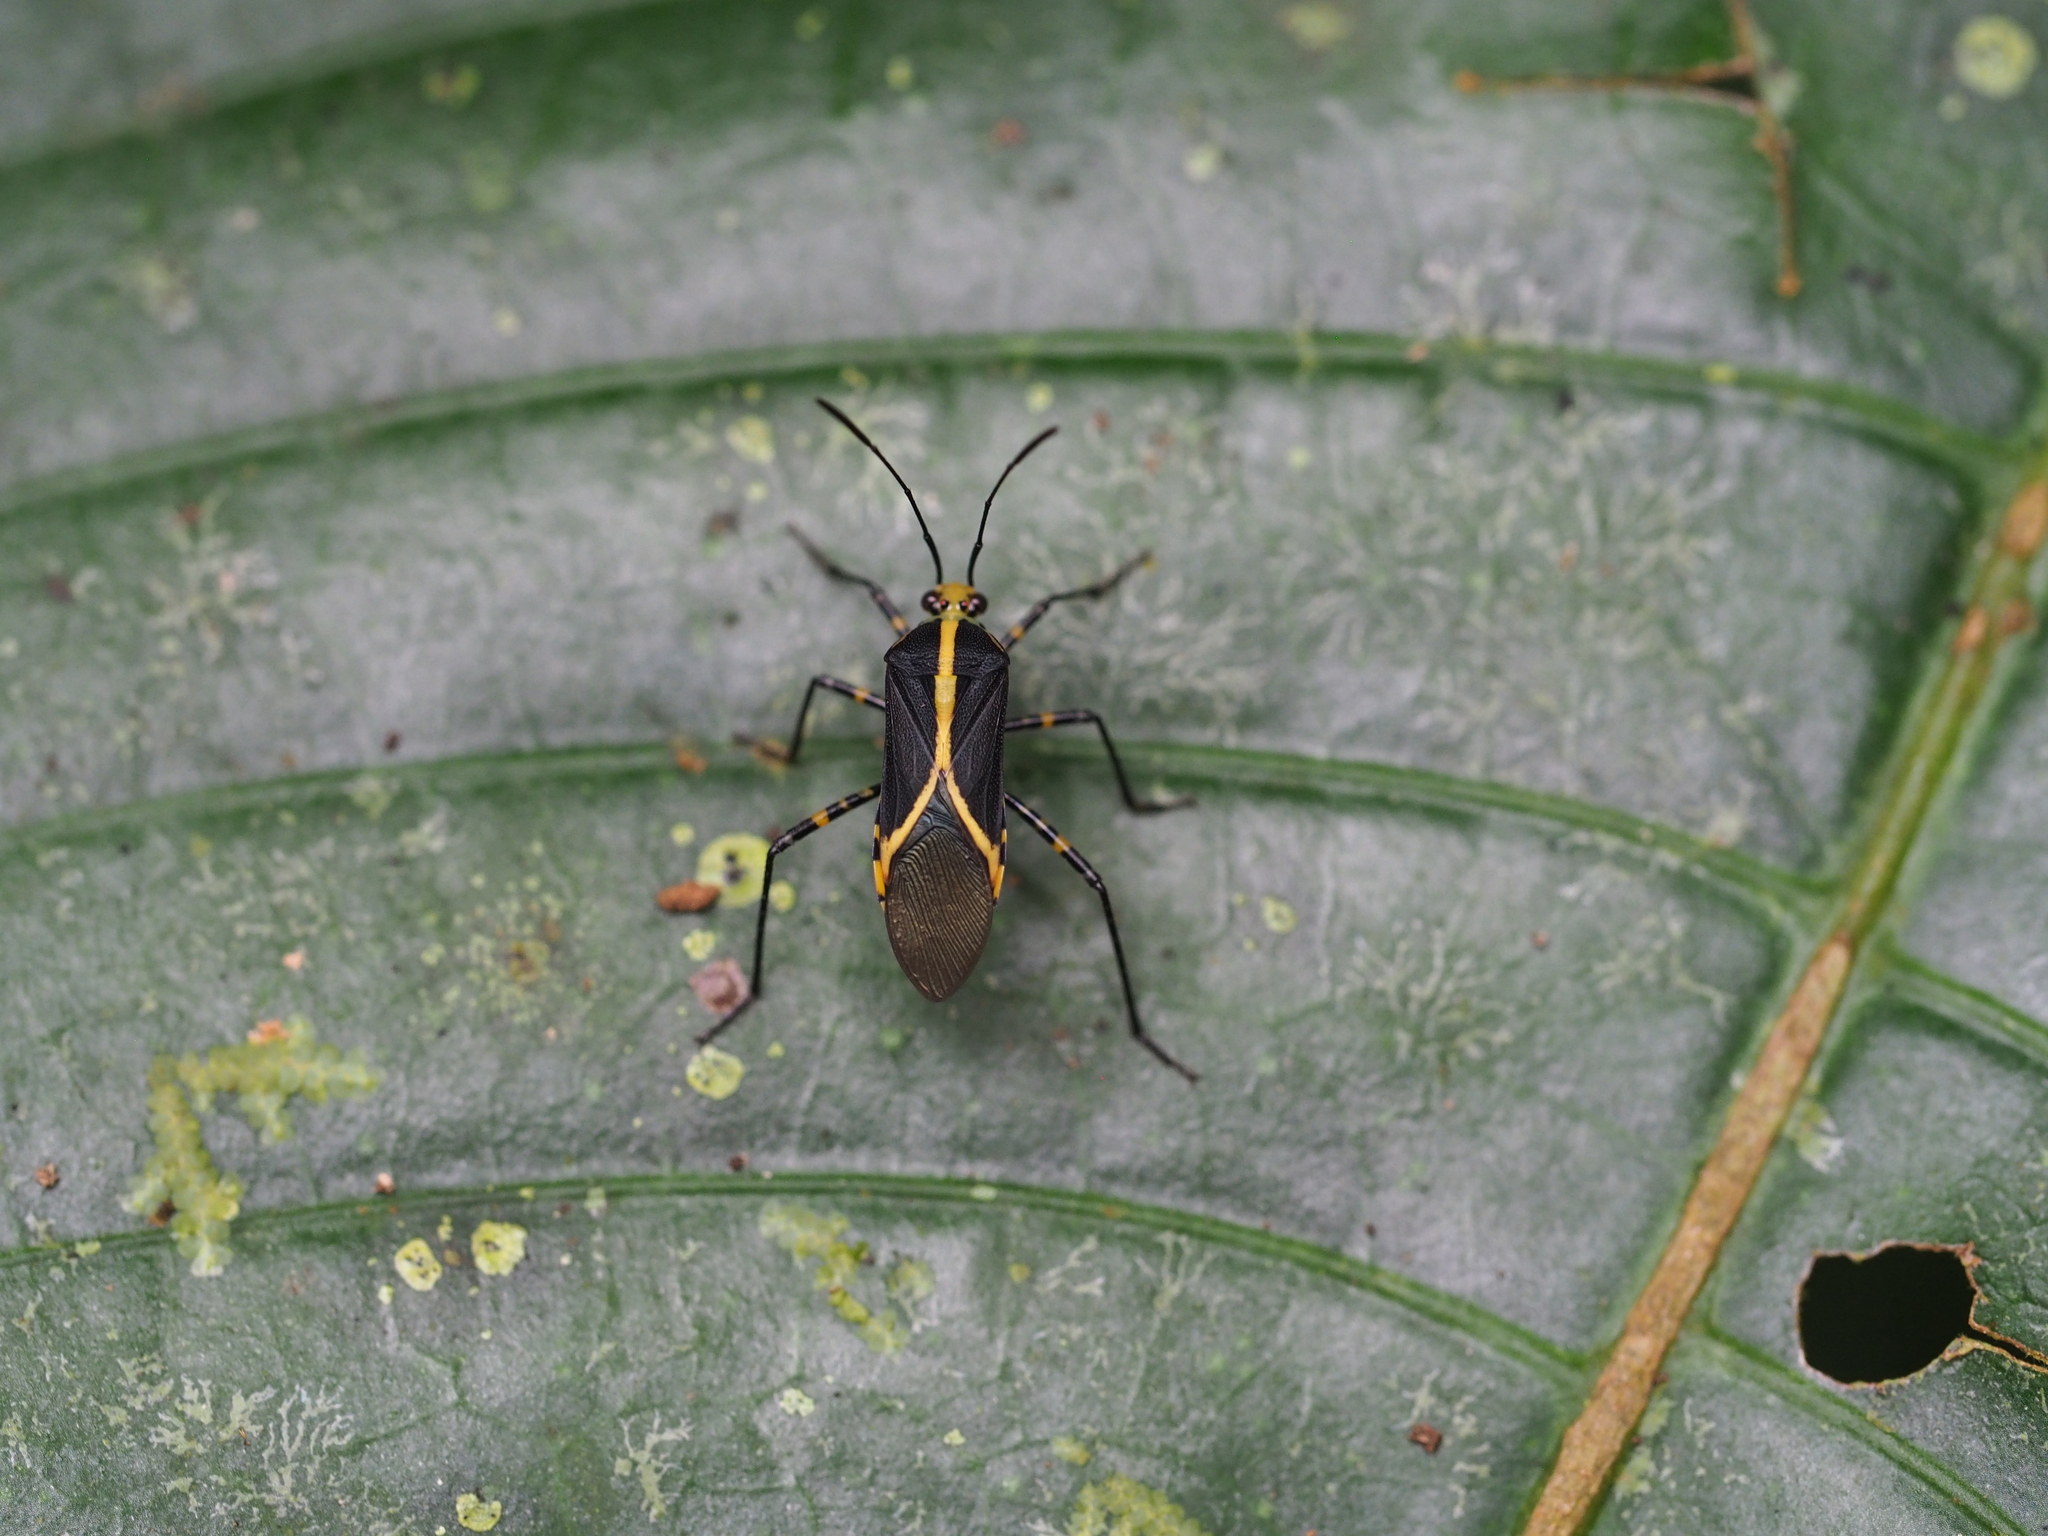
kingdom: Animalia
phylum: Arthropoda
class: Insecta
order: Hemiptera
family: Coreidae
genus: Hypselonotus
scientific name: Hypselonotus linea
